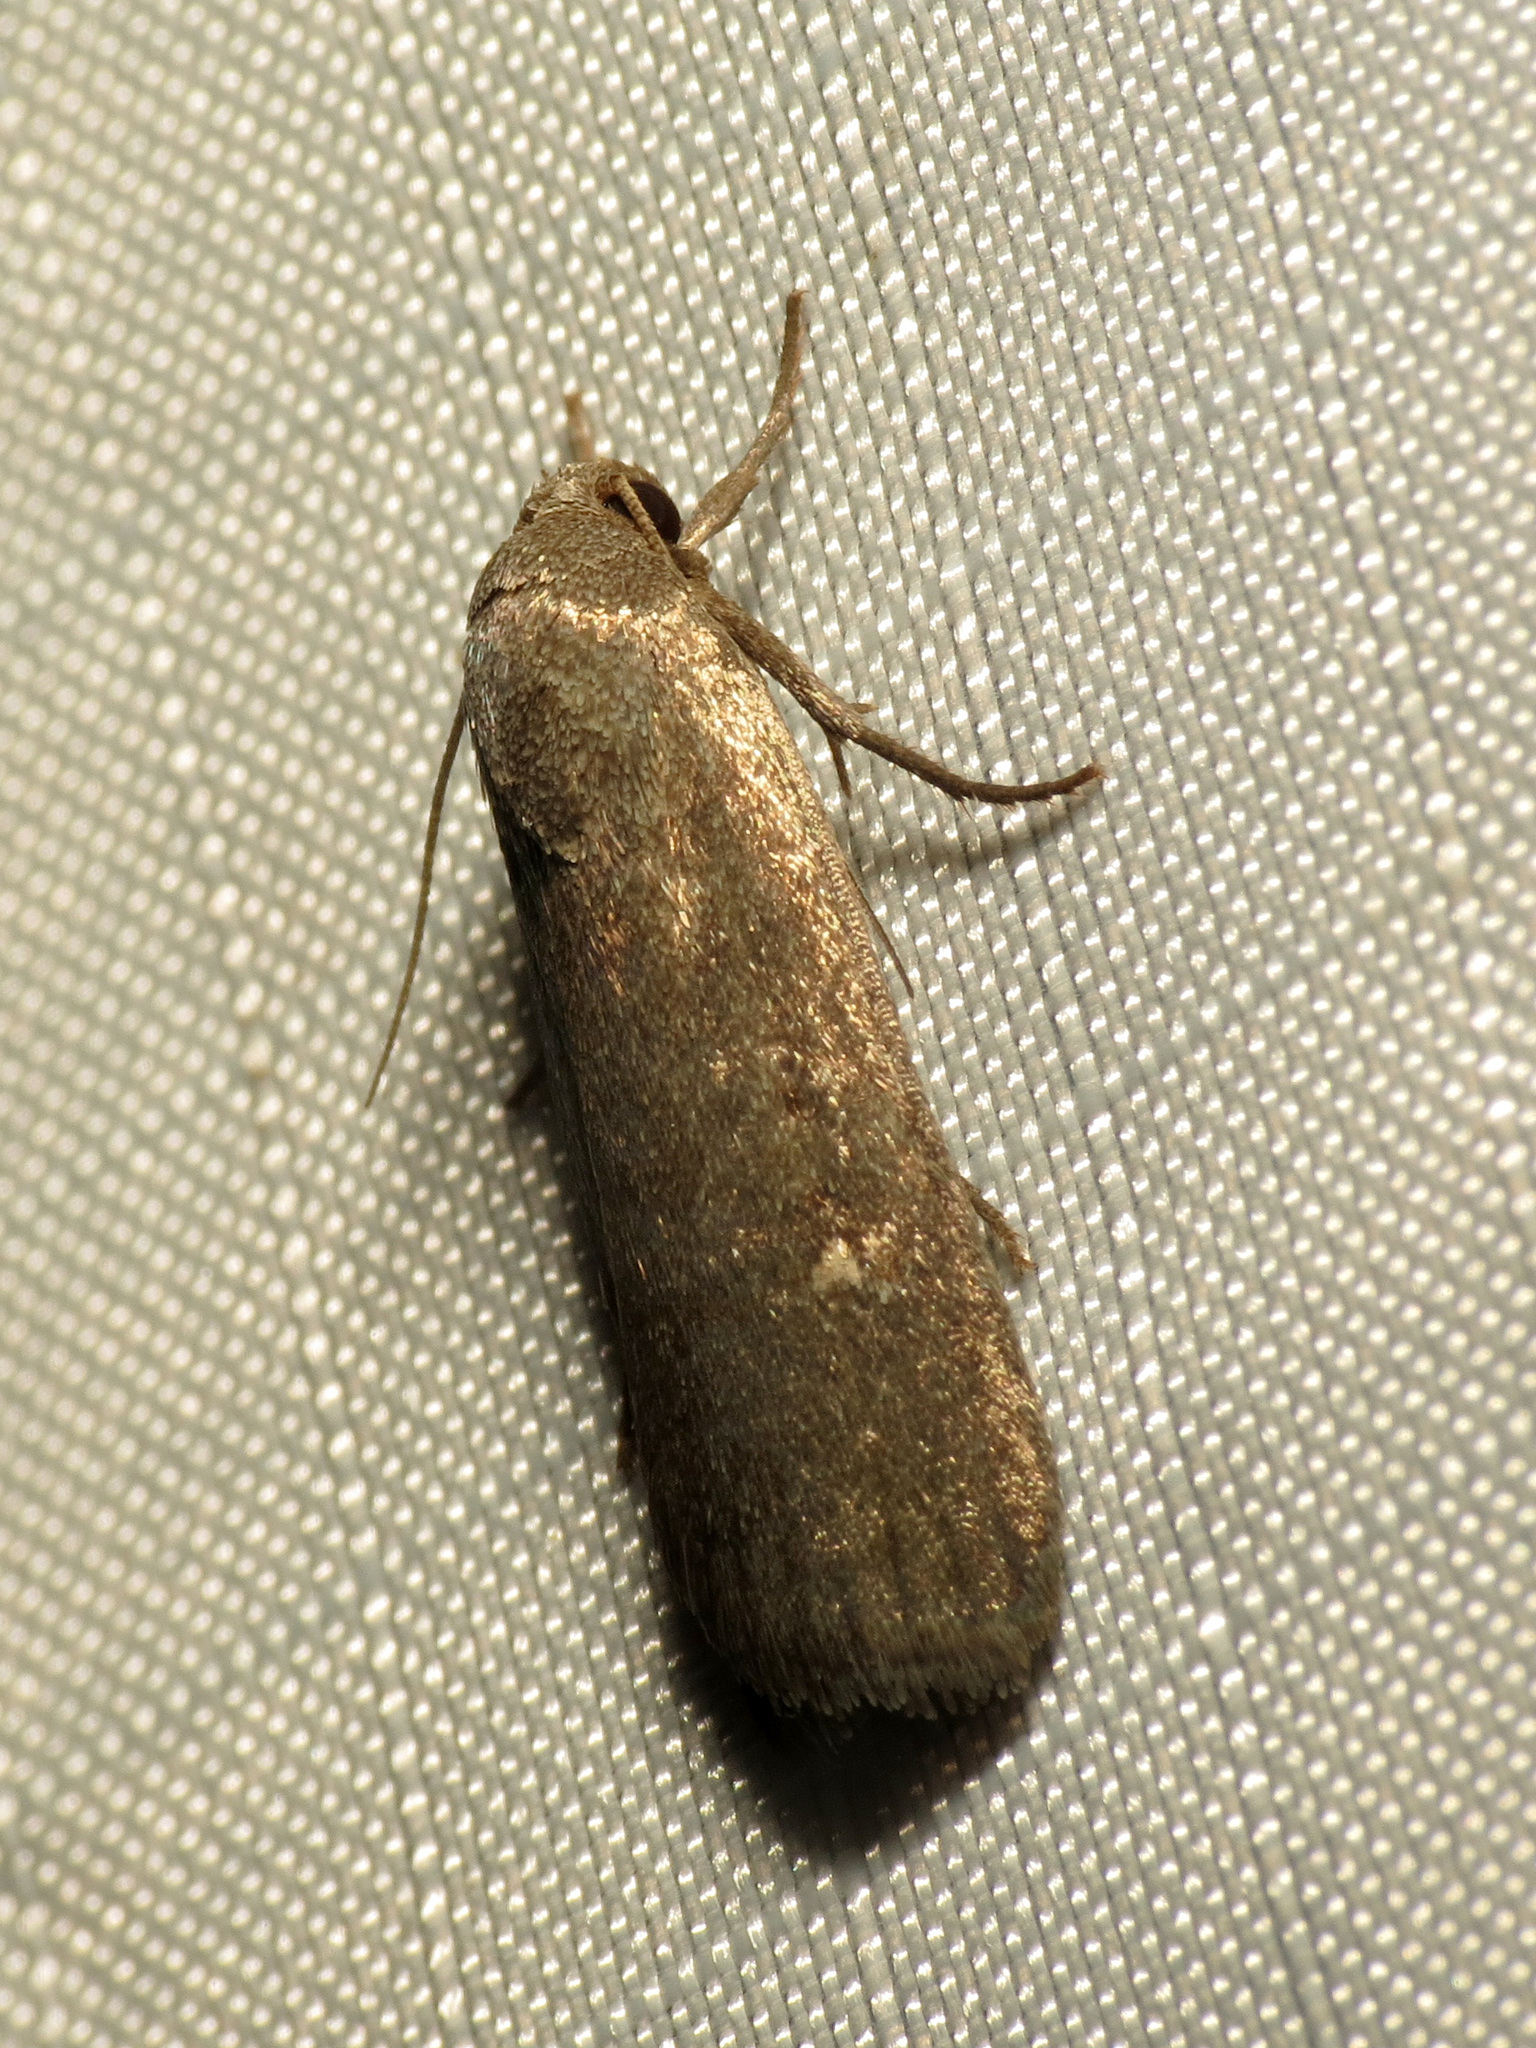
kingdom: Animalia
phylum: Arthropoda
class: Insecta
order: Lepidoptera
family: Noctuidae
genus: Proxenus
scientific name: Proxenus miranda
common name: Miranda moth
